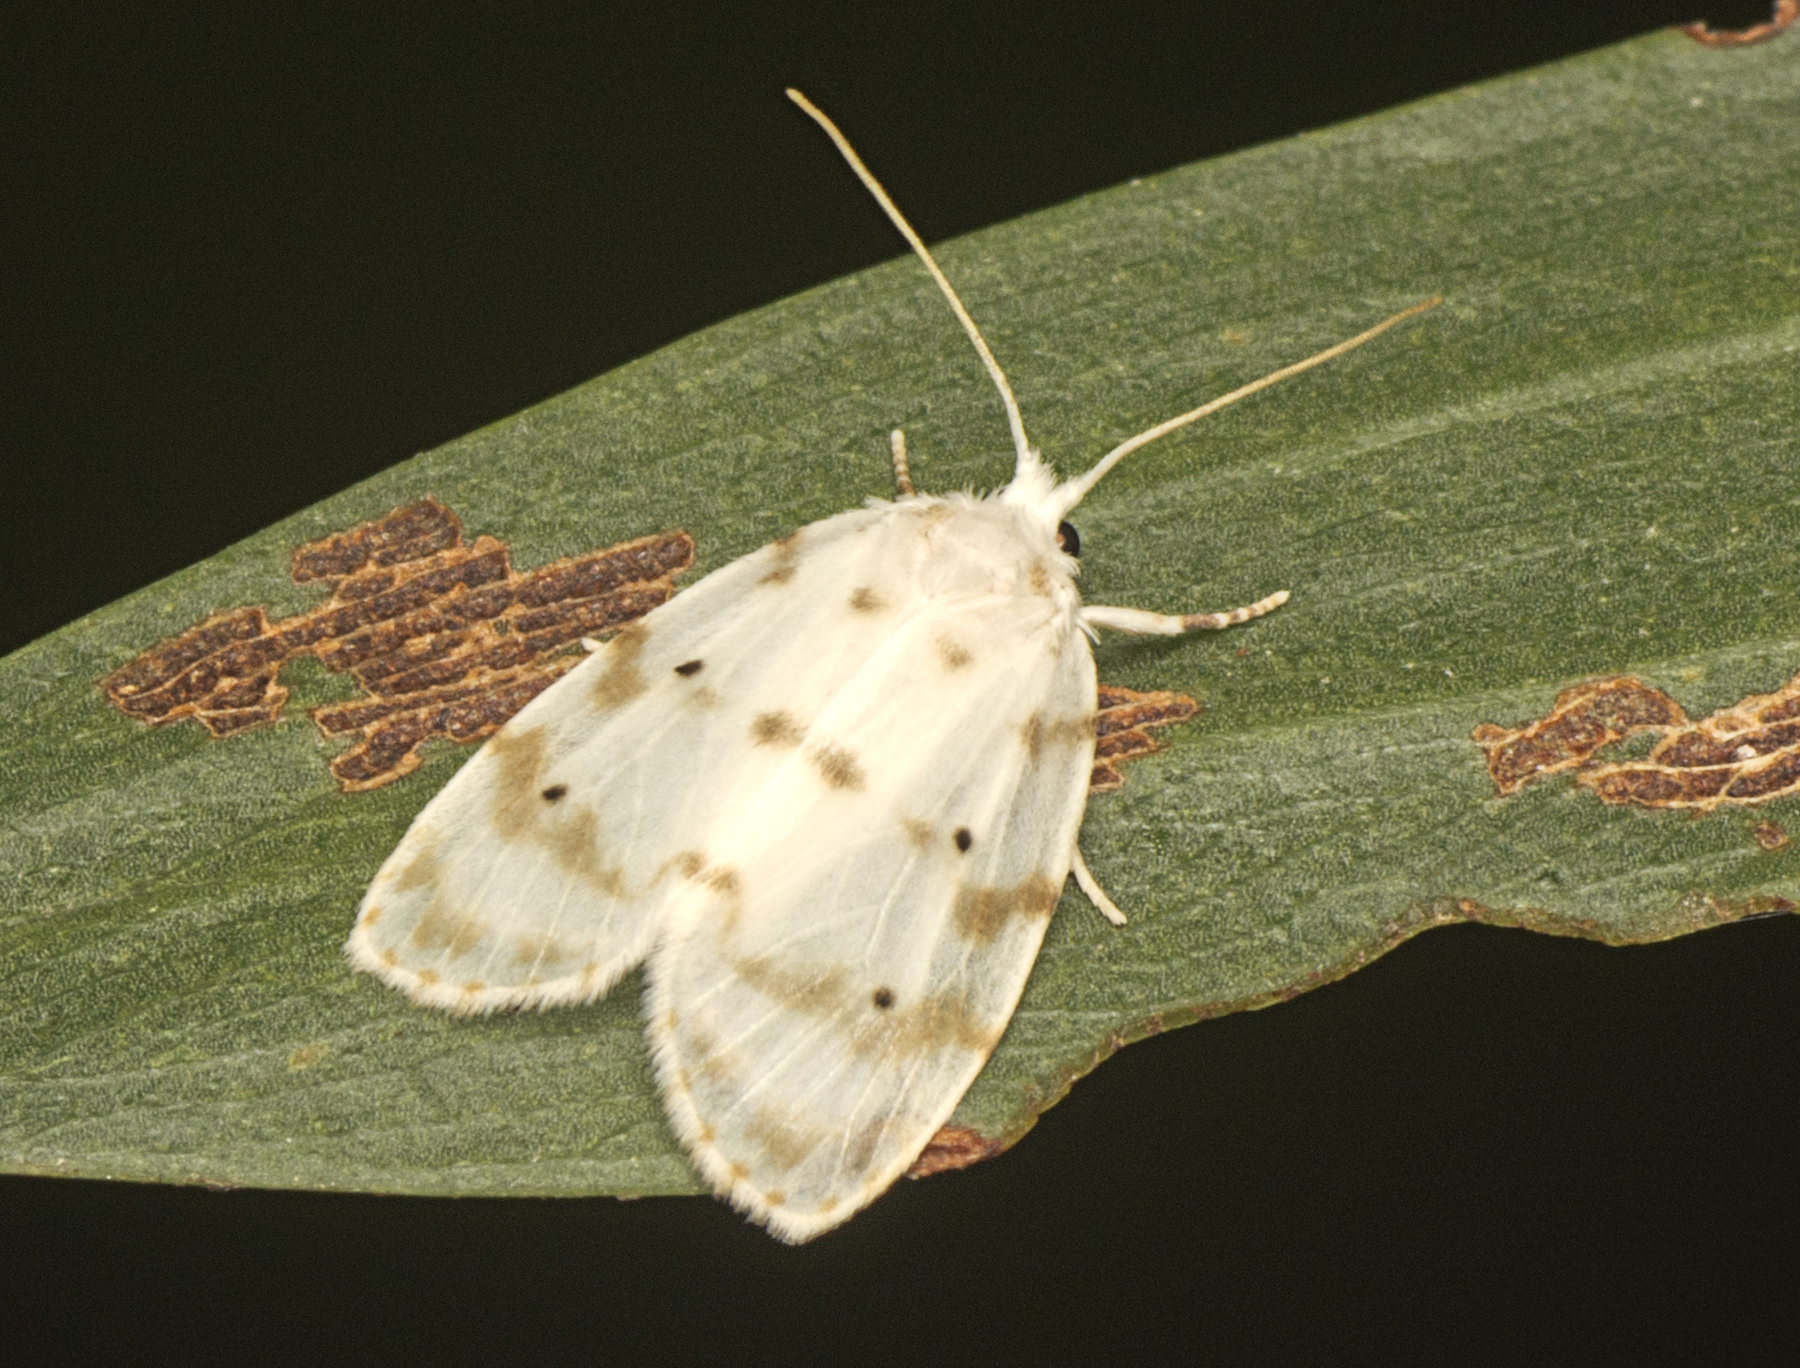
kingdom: Animalia
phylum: Arthropoda
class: Insecta
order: Lepidoptera
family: Erebidae
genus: Schistophleps
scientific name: Schistophleps albida
